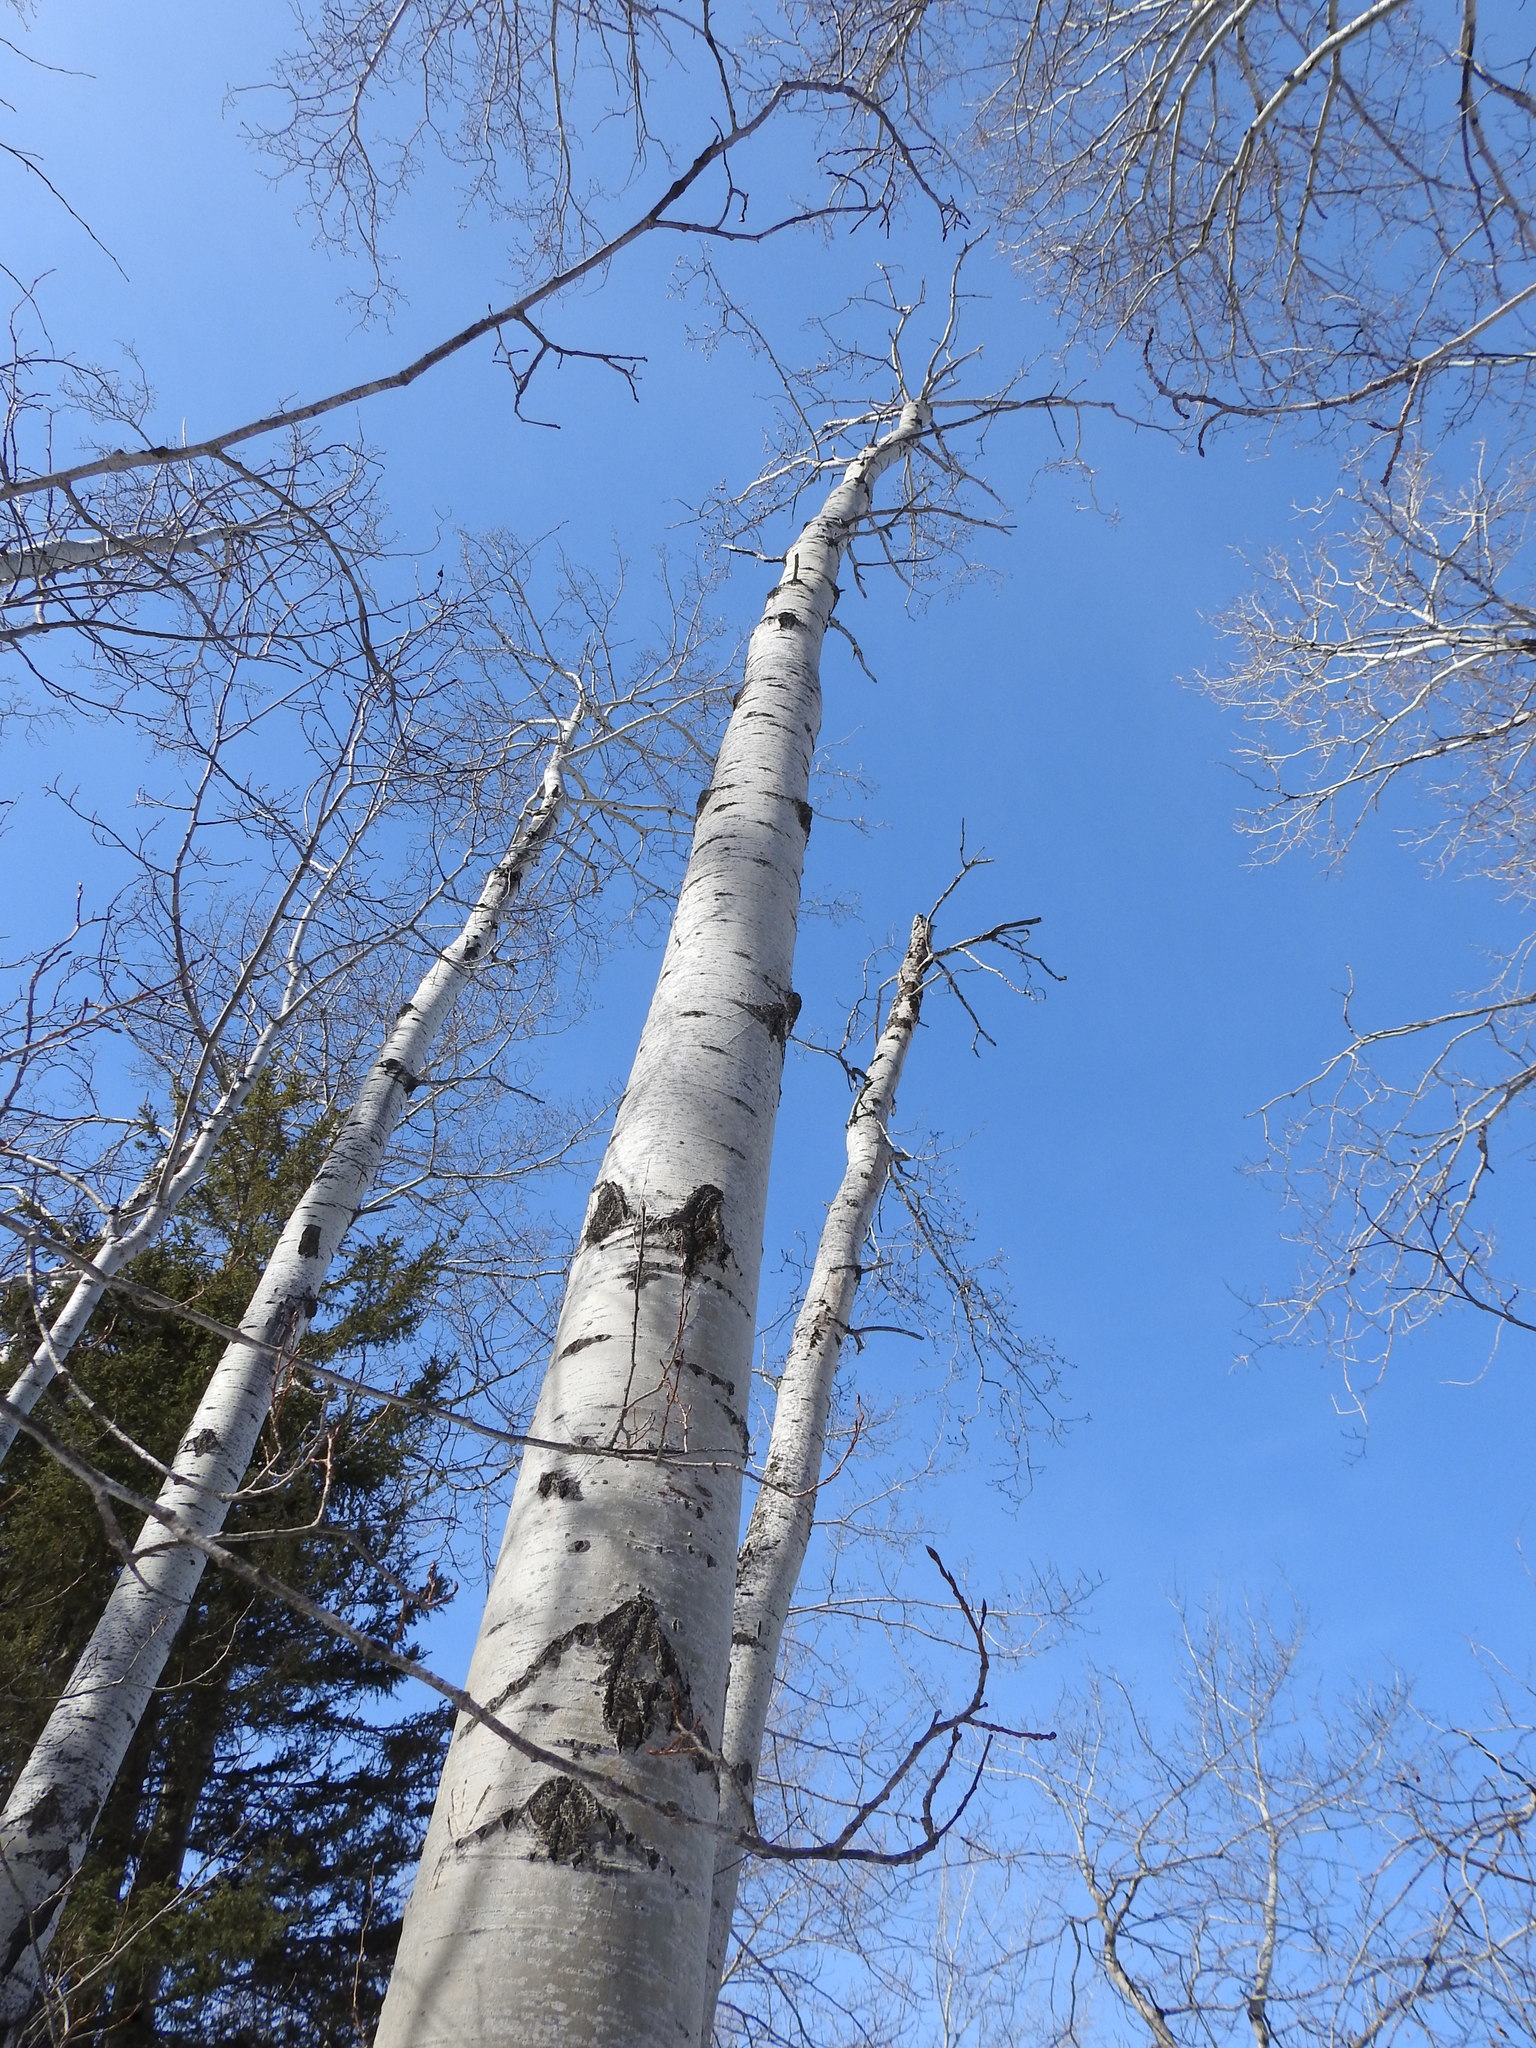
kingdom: Plantae
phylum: Tracheophyta
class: Magnoliopsida
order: Malpighiales
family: Salicaceae
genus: Populus
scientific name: Populus tremuloides
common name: Quaking aspen
